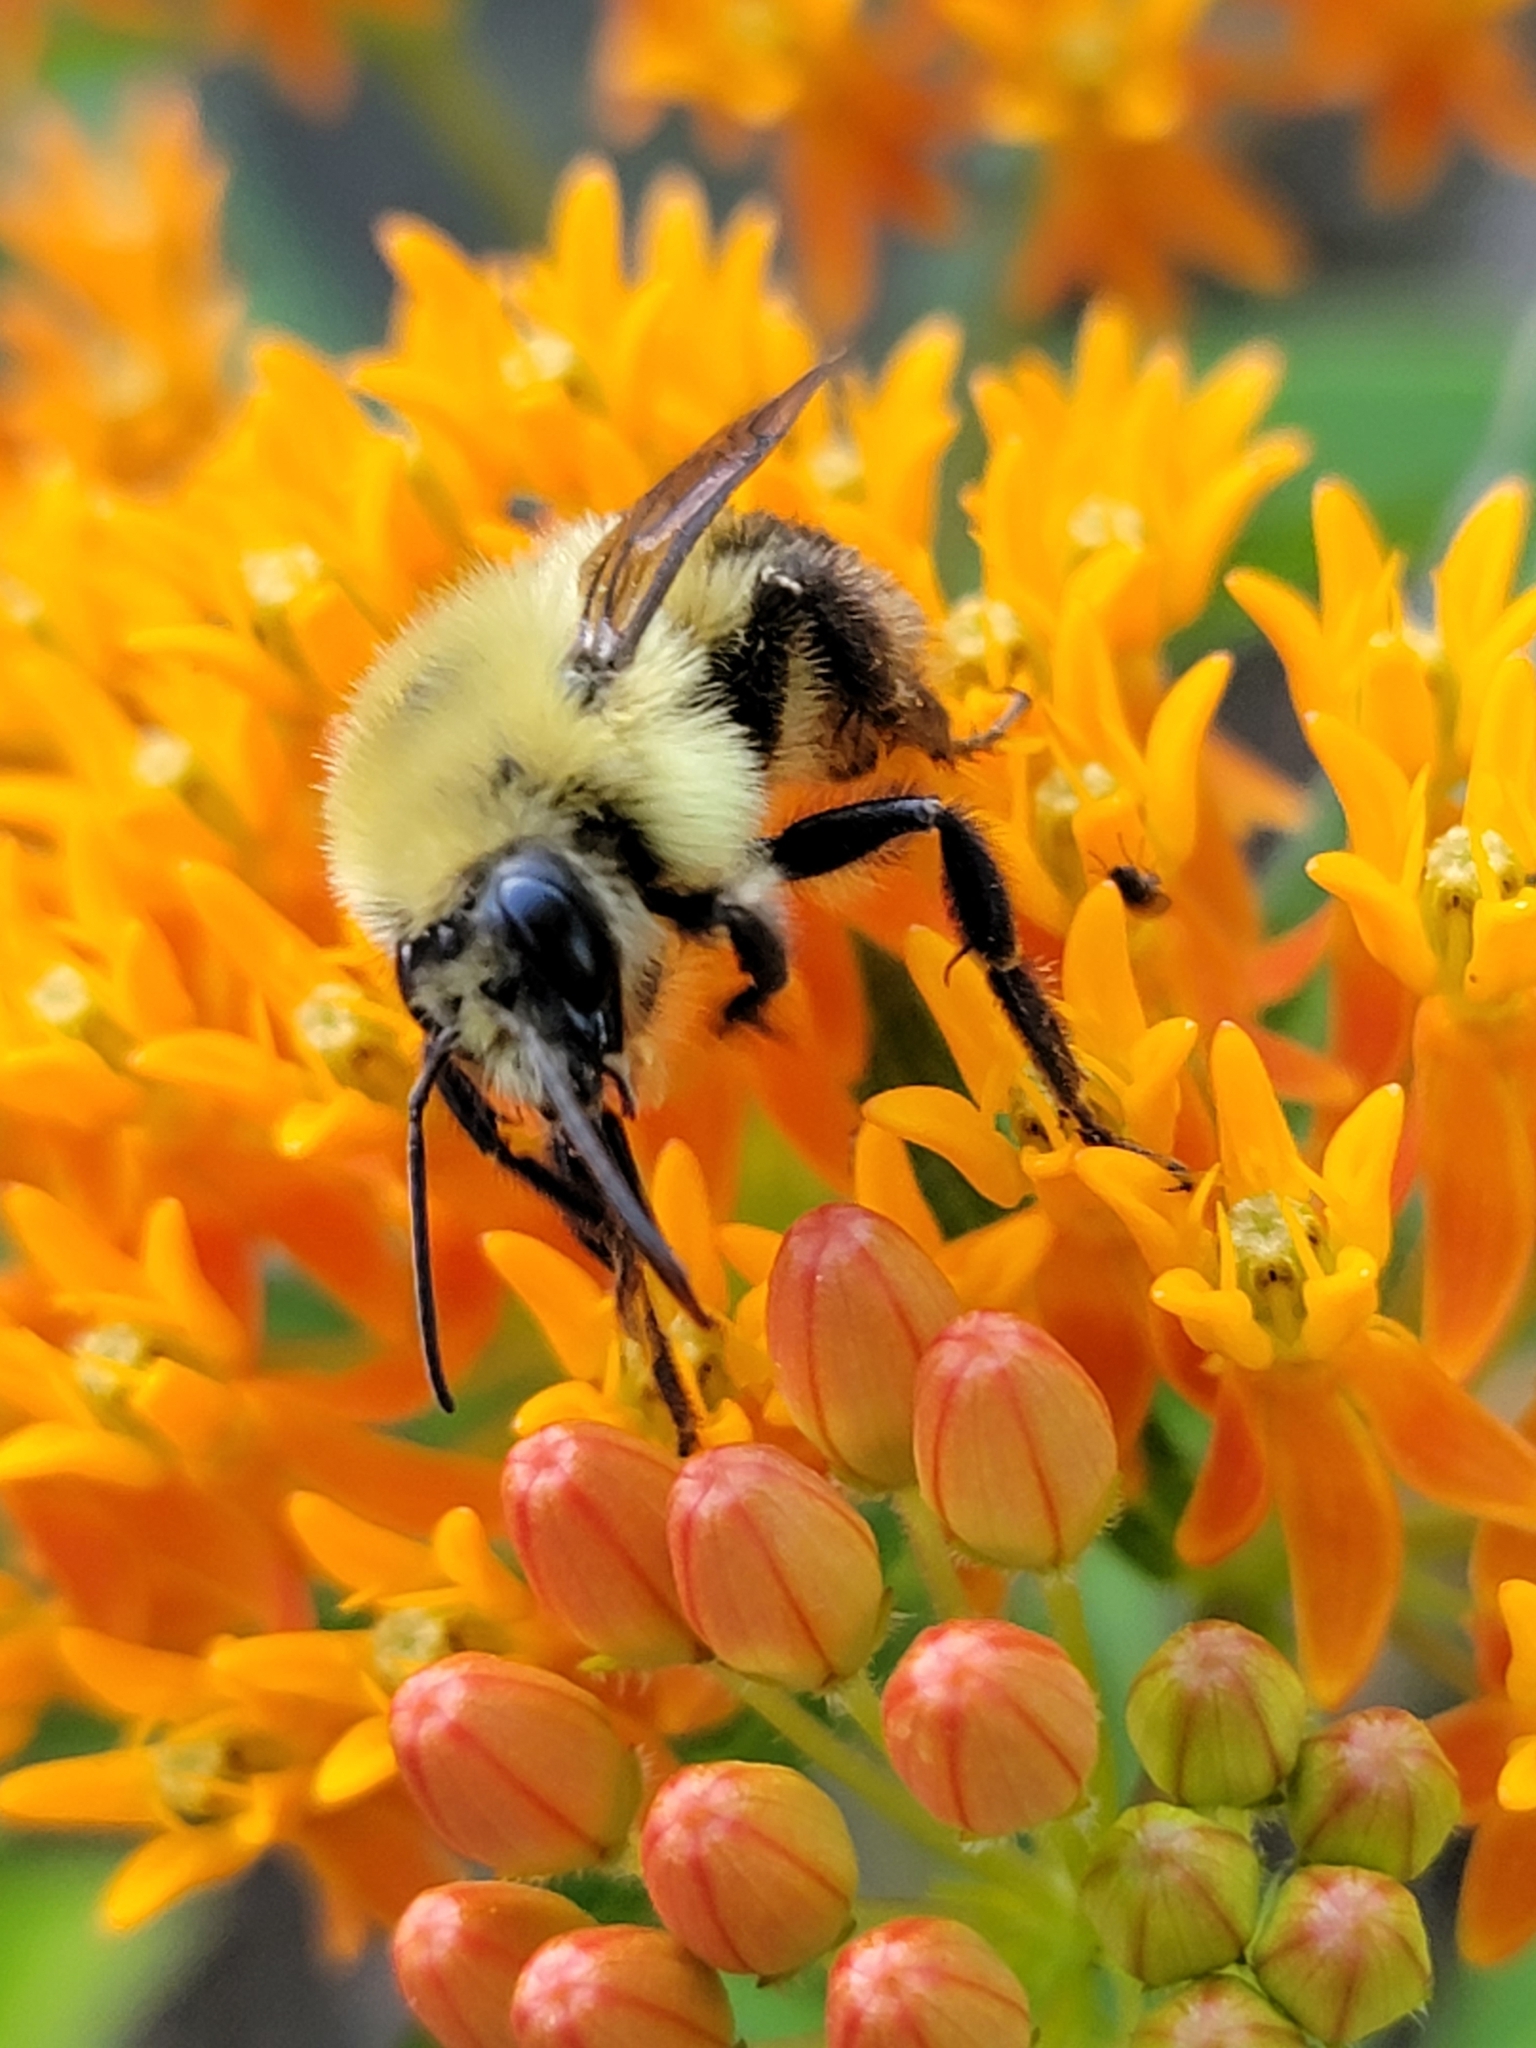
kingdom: Animalia
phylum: Arthropoda
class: Insecta
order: Hymenoptera
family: Apidae
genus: Bombus
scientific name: Bombus bimaculatus
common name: Two-spotted bumble bee
